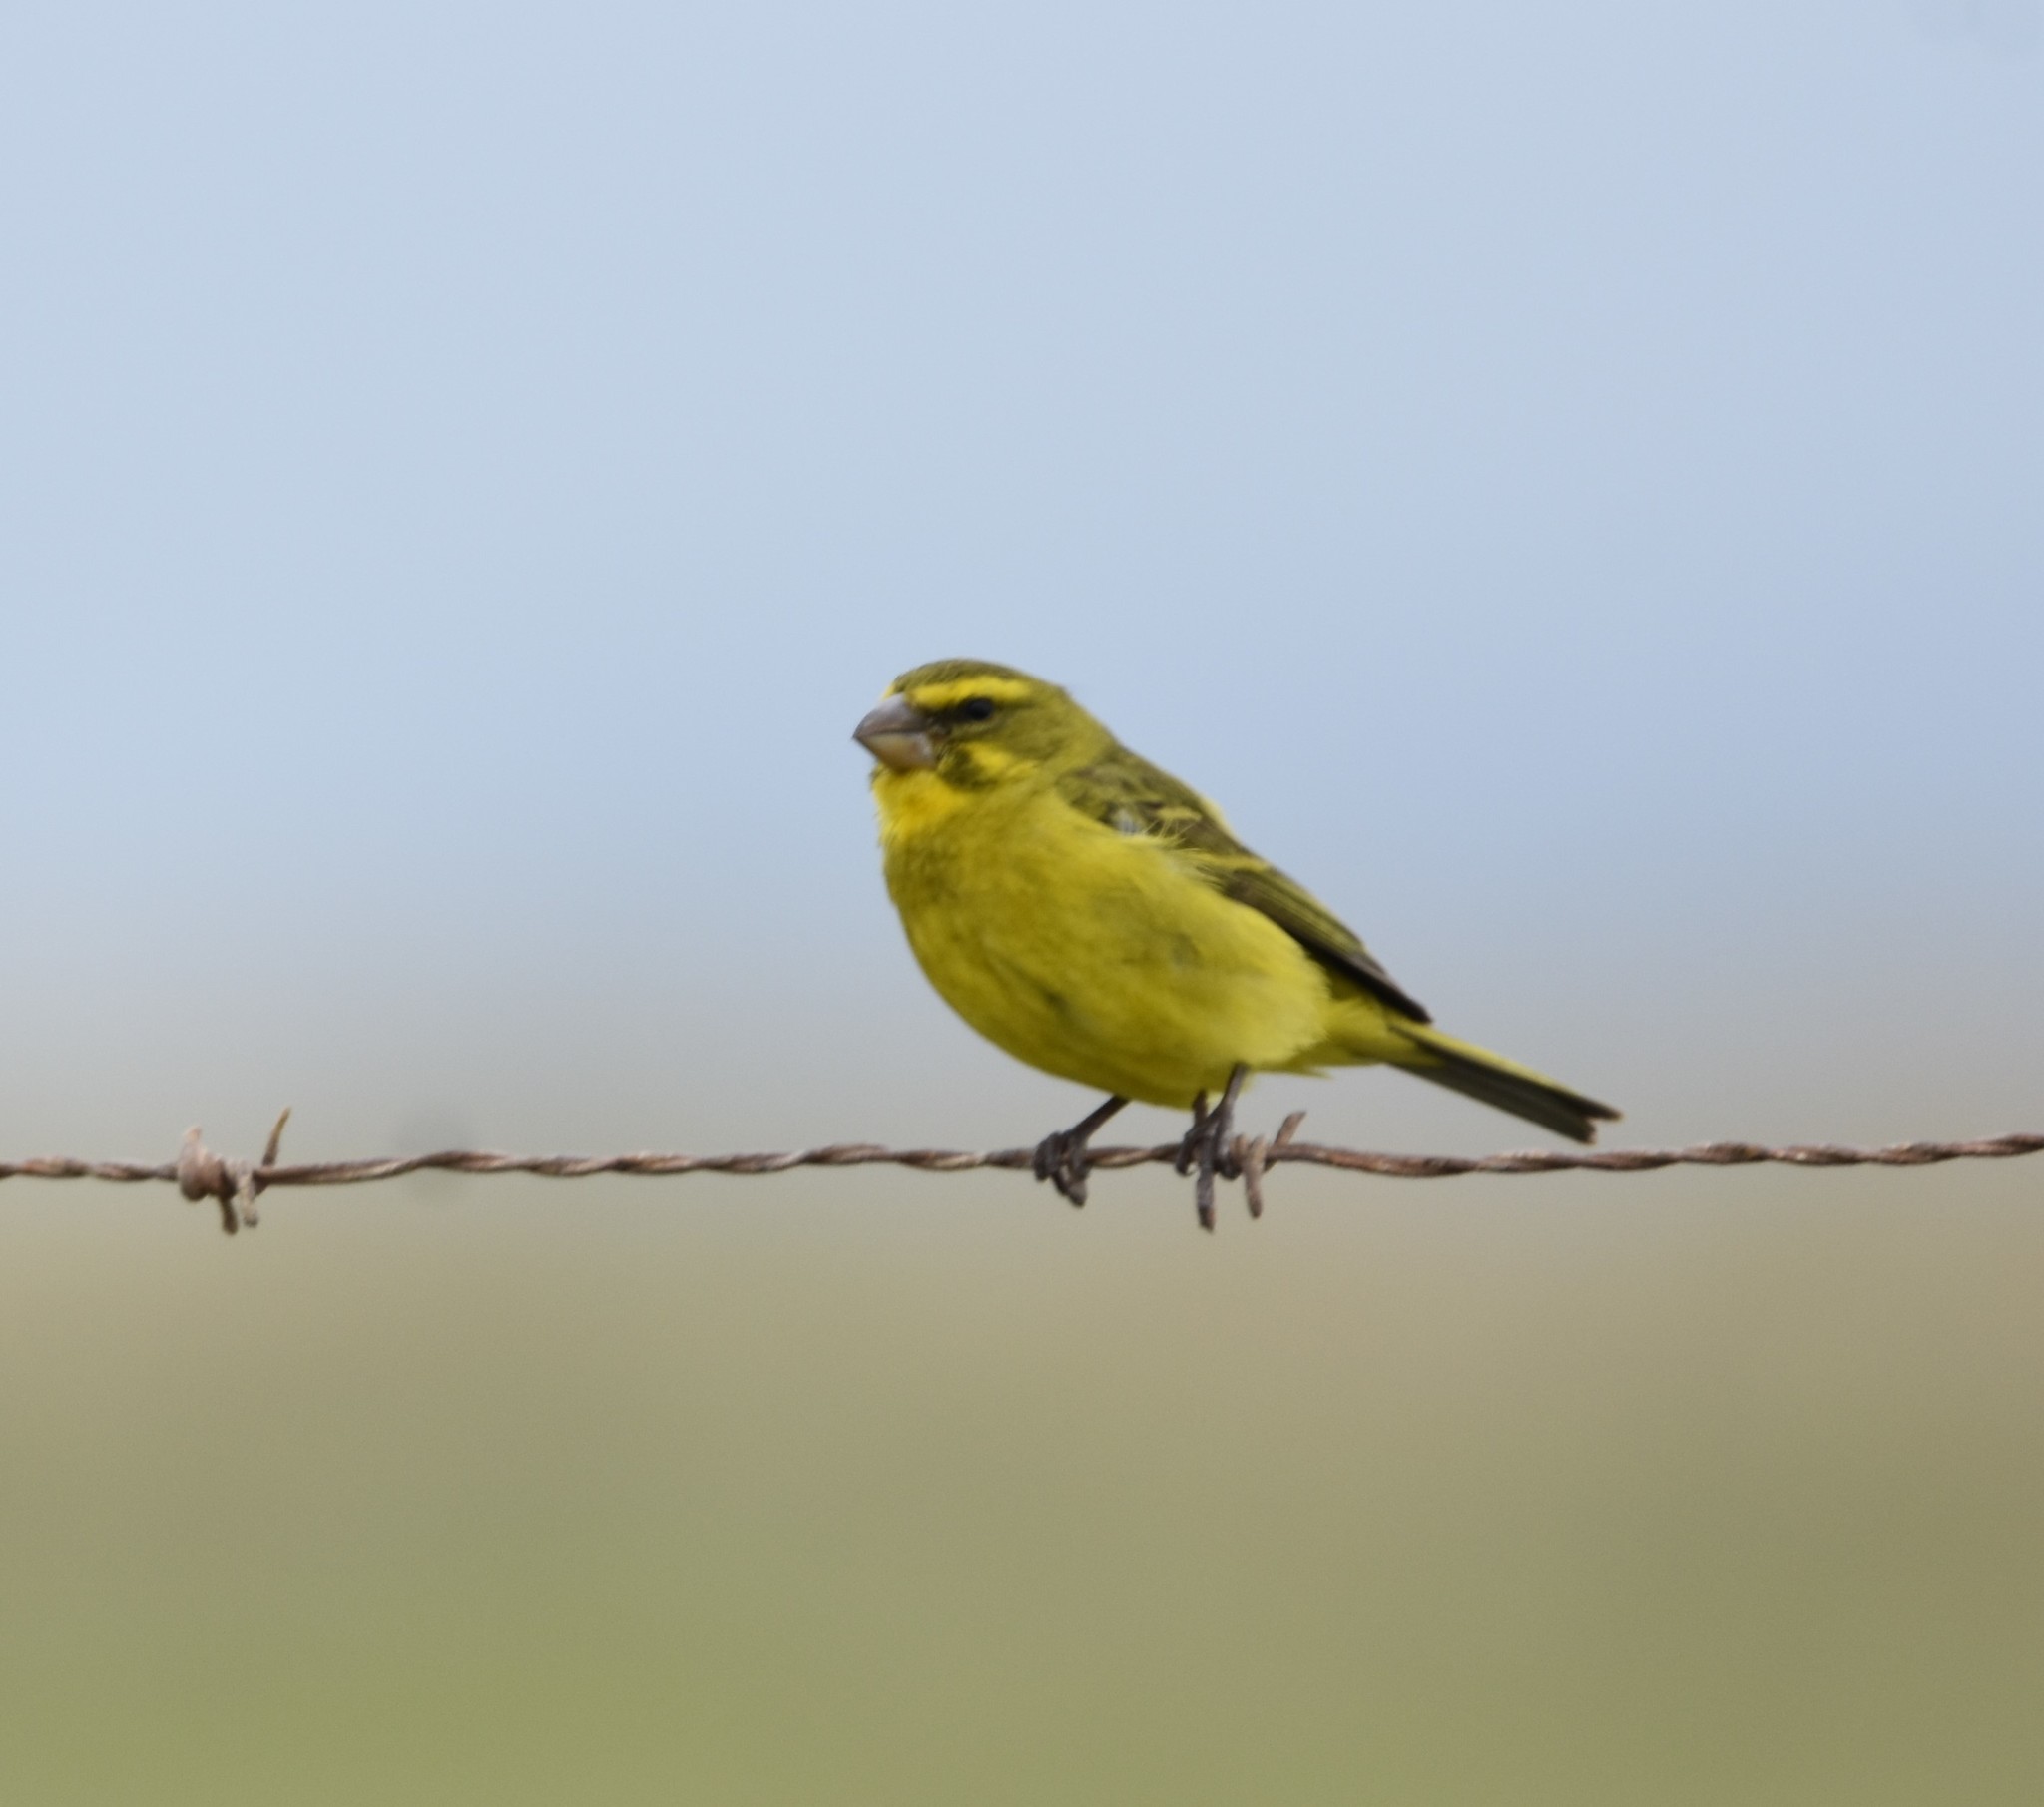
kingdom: Animalia
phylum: Chordata
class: Aves
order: Passeriformes
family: Fringillidae
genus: Crithagra
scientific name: Crithagra sulphurata
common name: Brimstone canary
